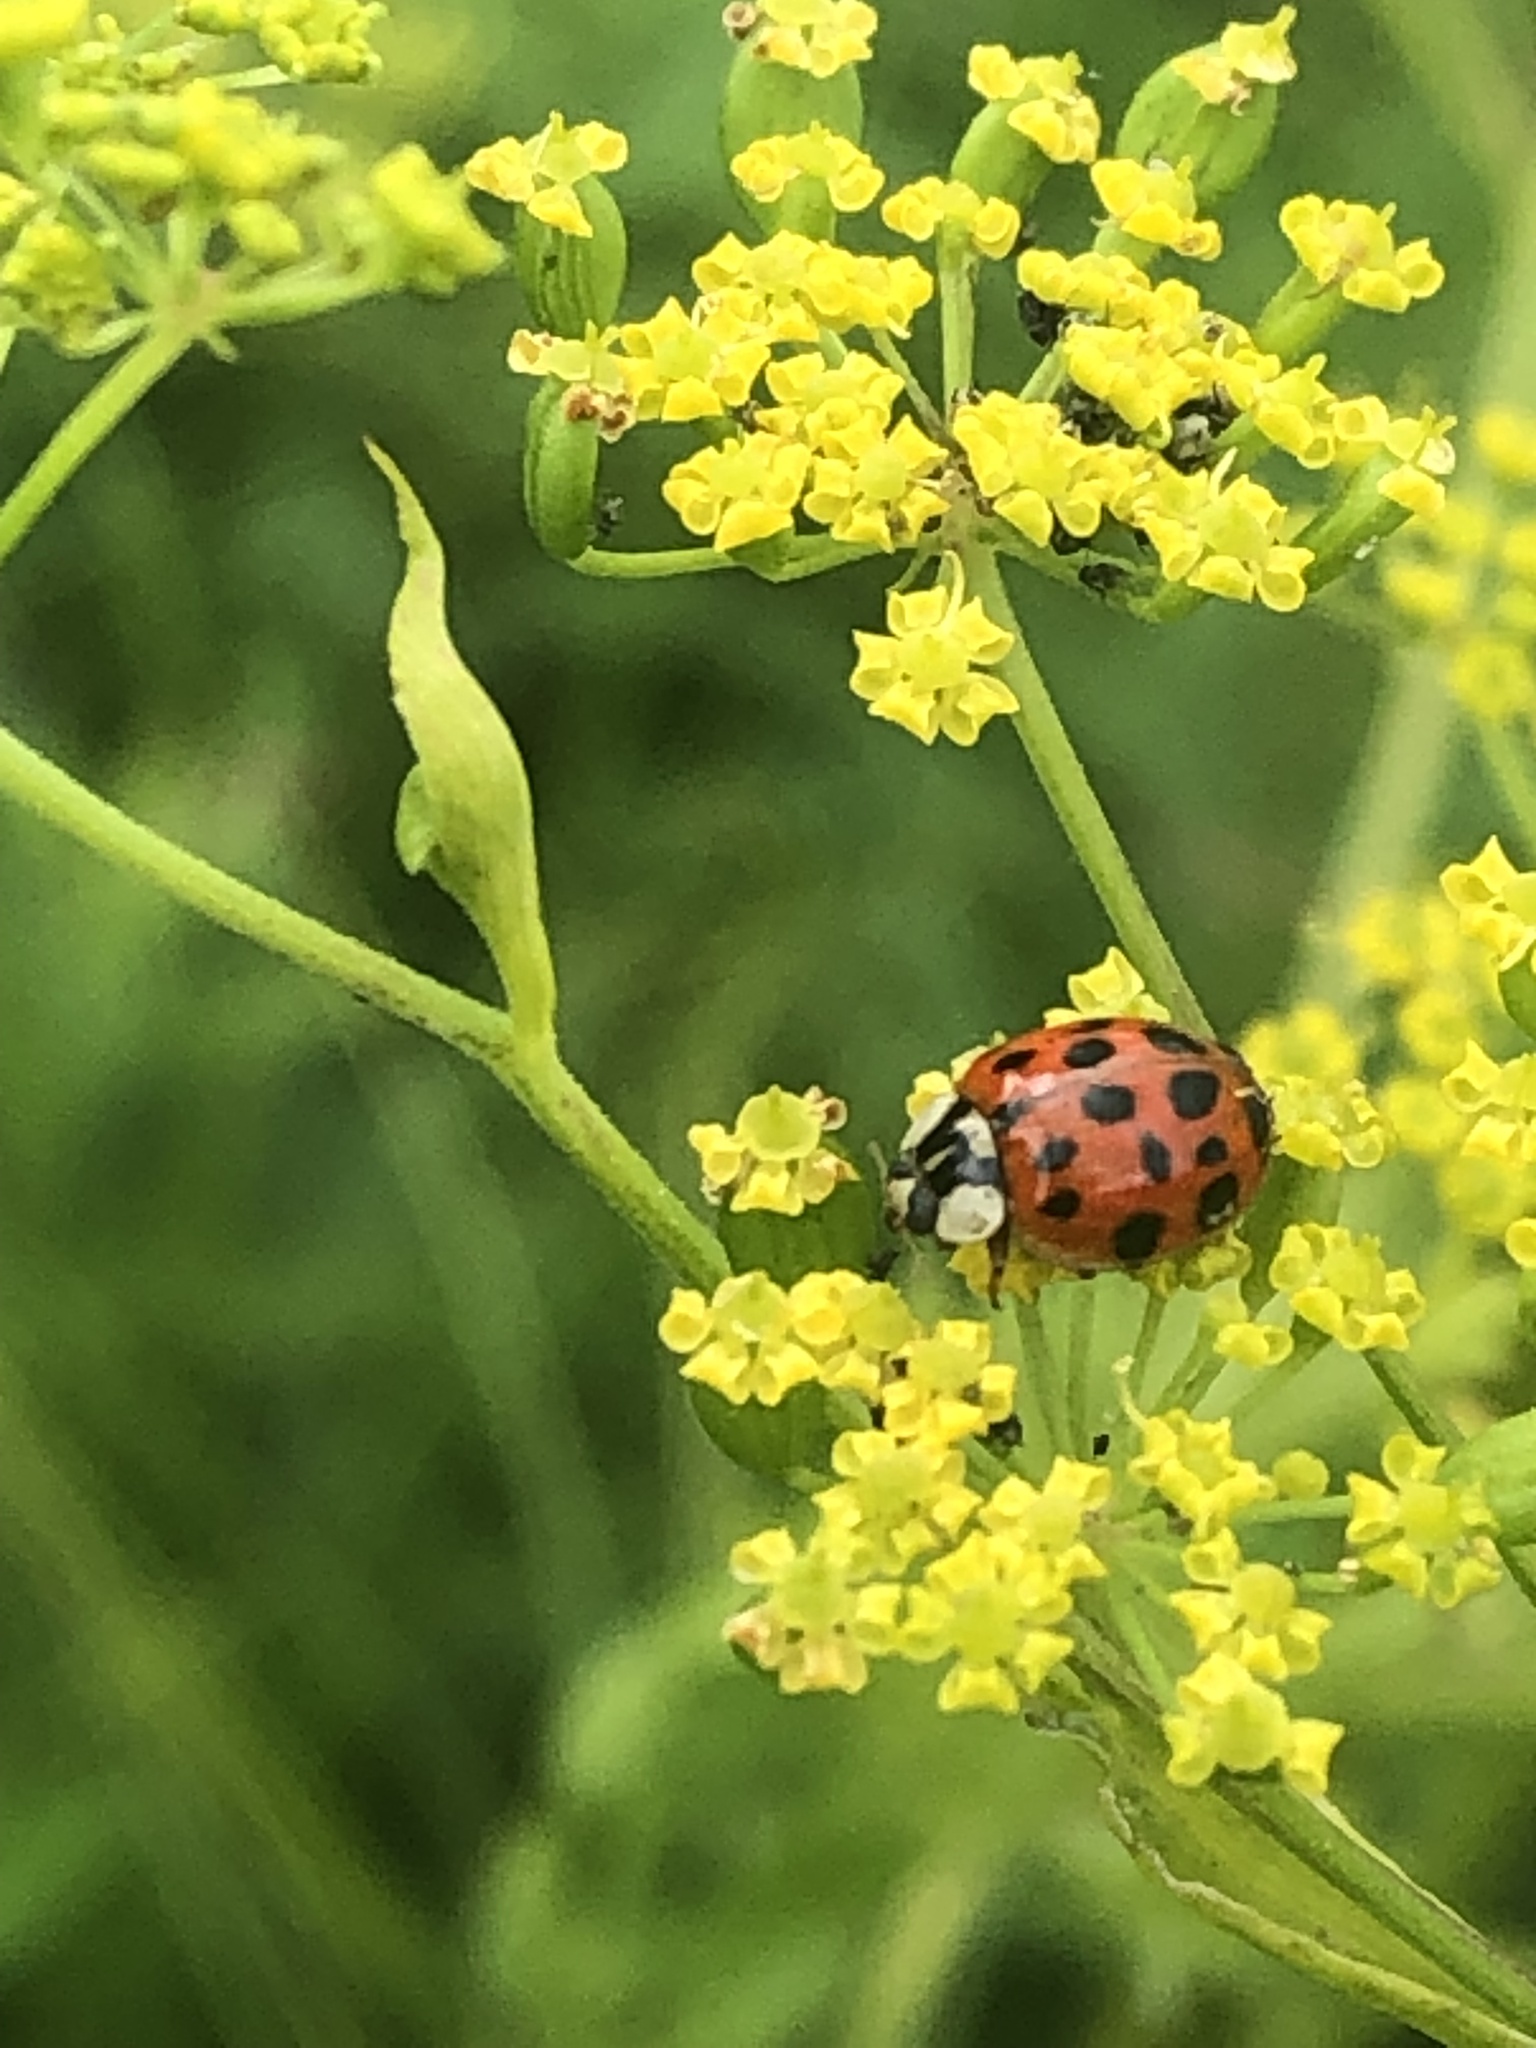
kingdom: Animalia
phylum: Arthropoda
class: Insecta
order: Coleoptera
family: Coccinellidae
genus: Harmonia
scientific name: Harmonia axyridis
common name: Harlequin ladybird
